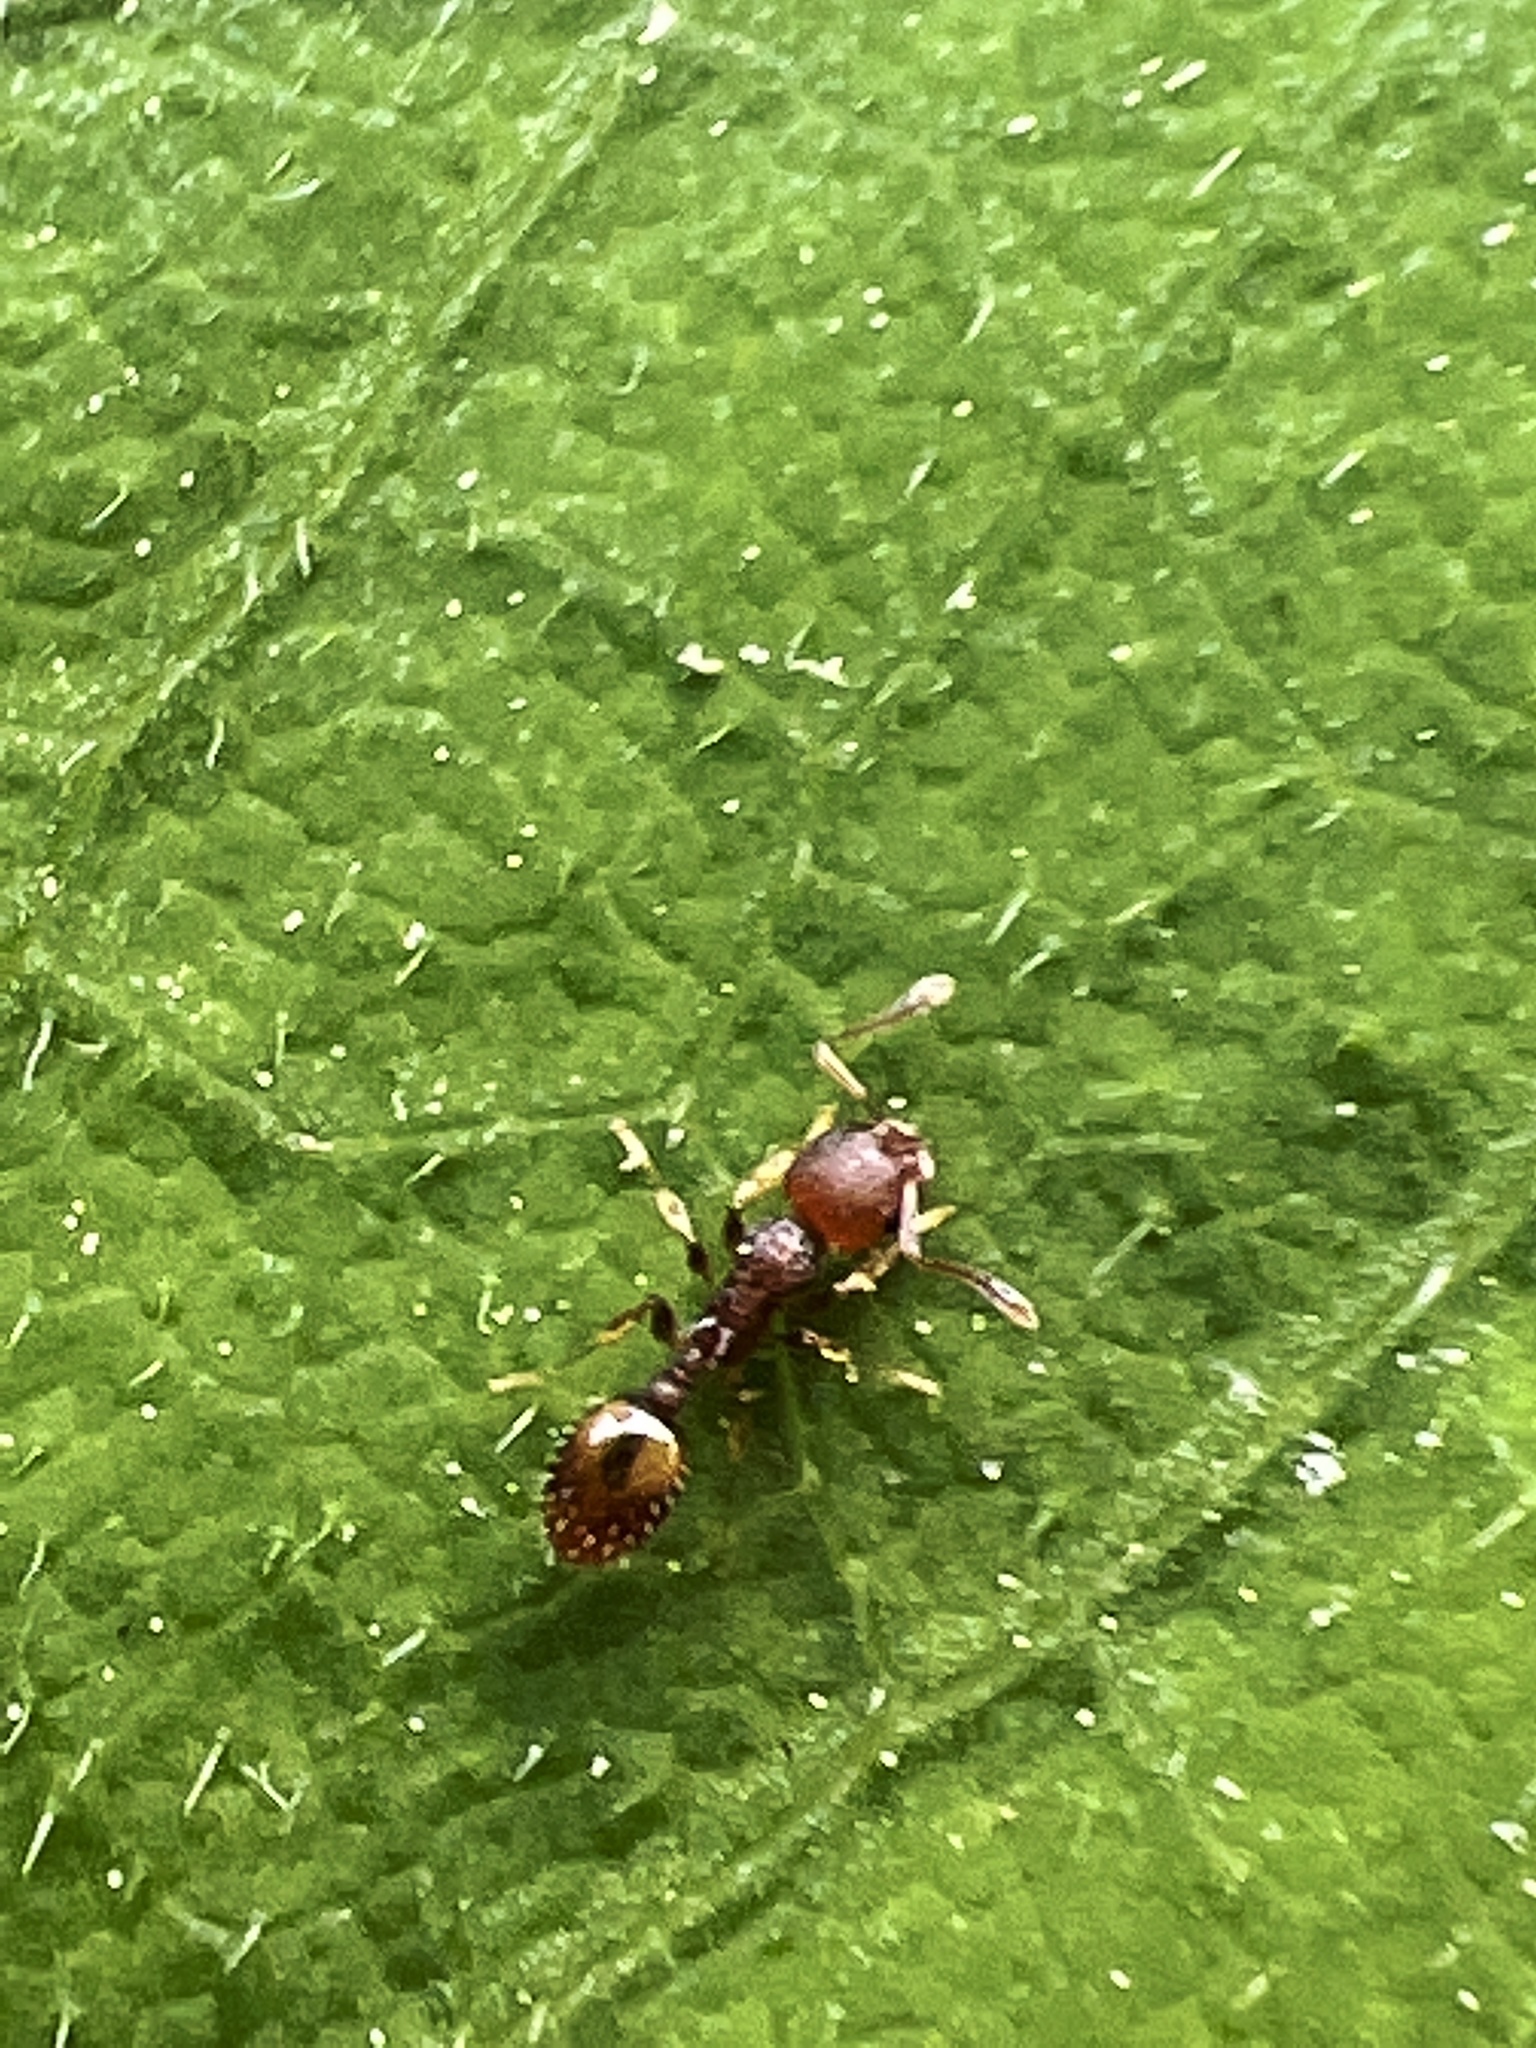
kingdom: Animalia
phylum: Arthropoda
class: Insecta
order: Hymenoptera
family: Formicidae
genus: Temnothorax
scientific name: Temnothorax curvispinosus
